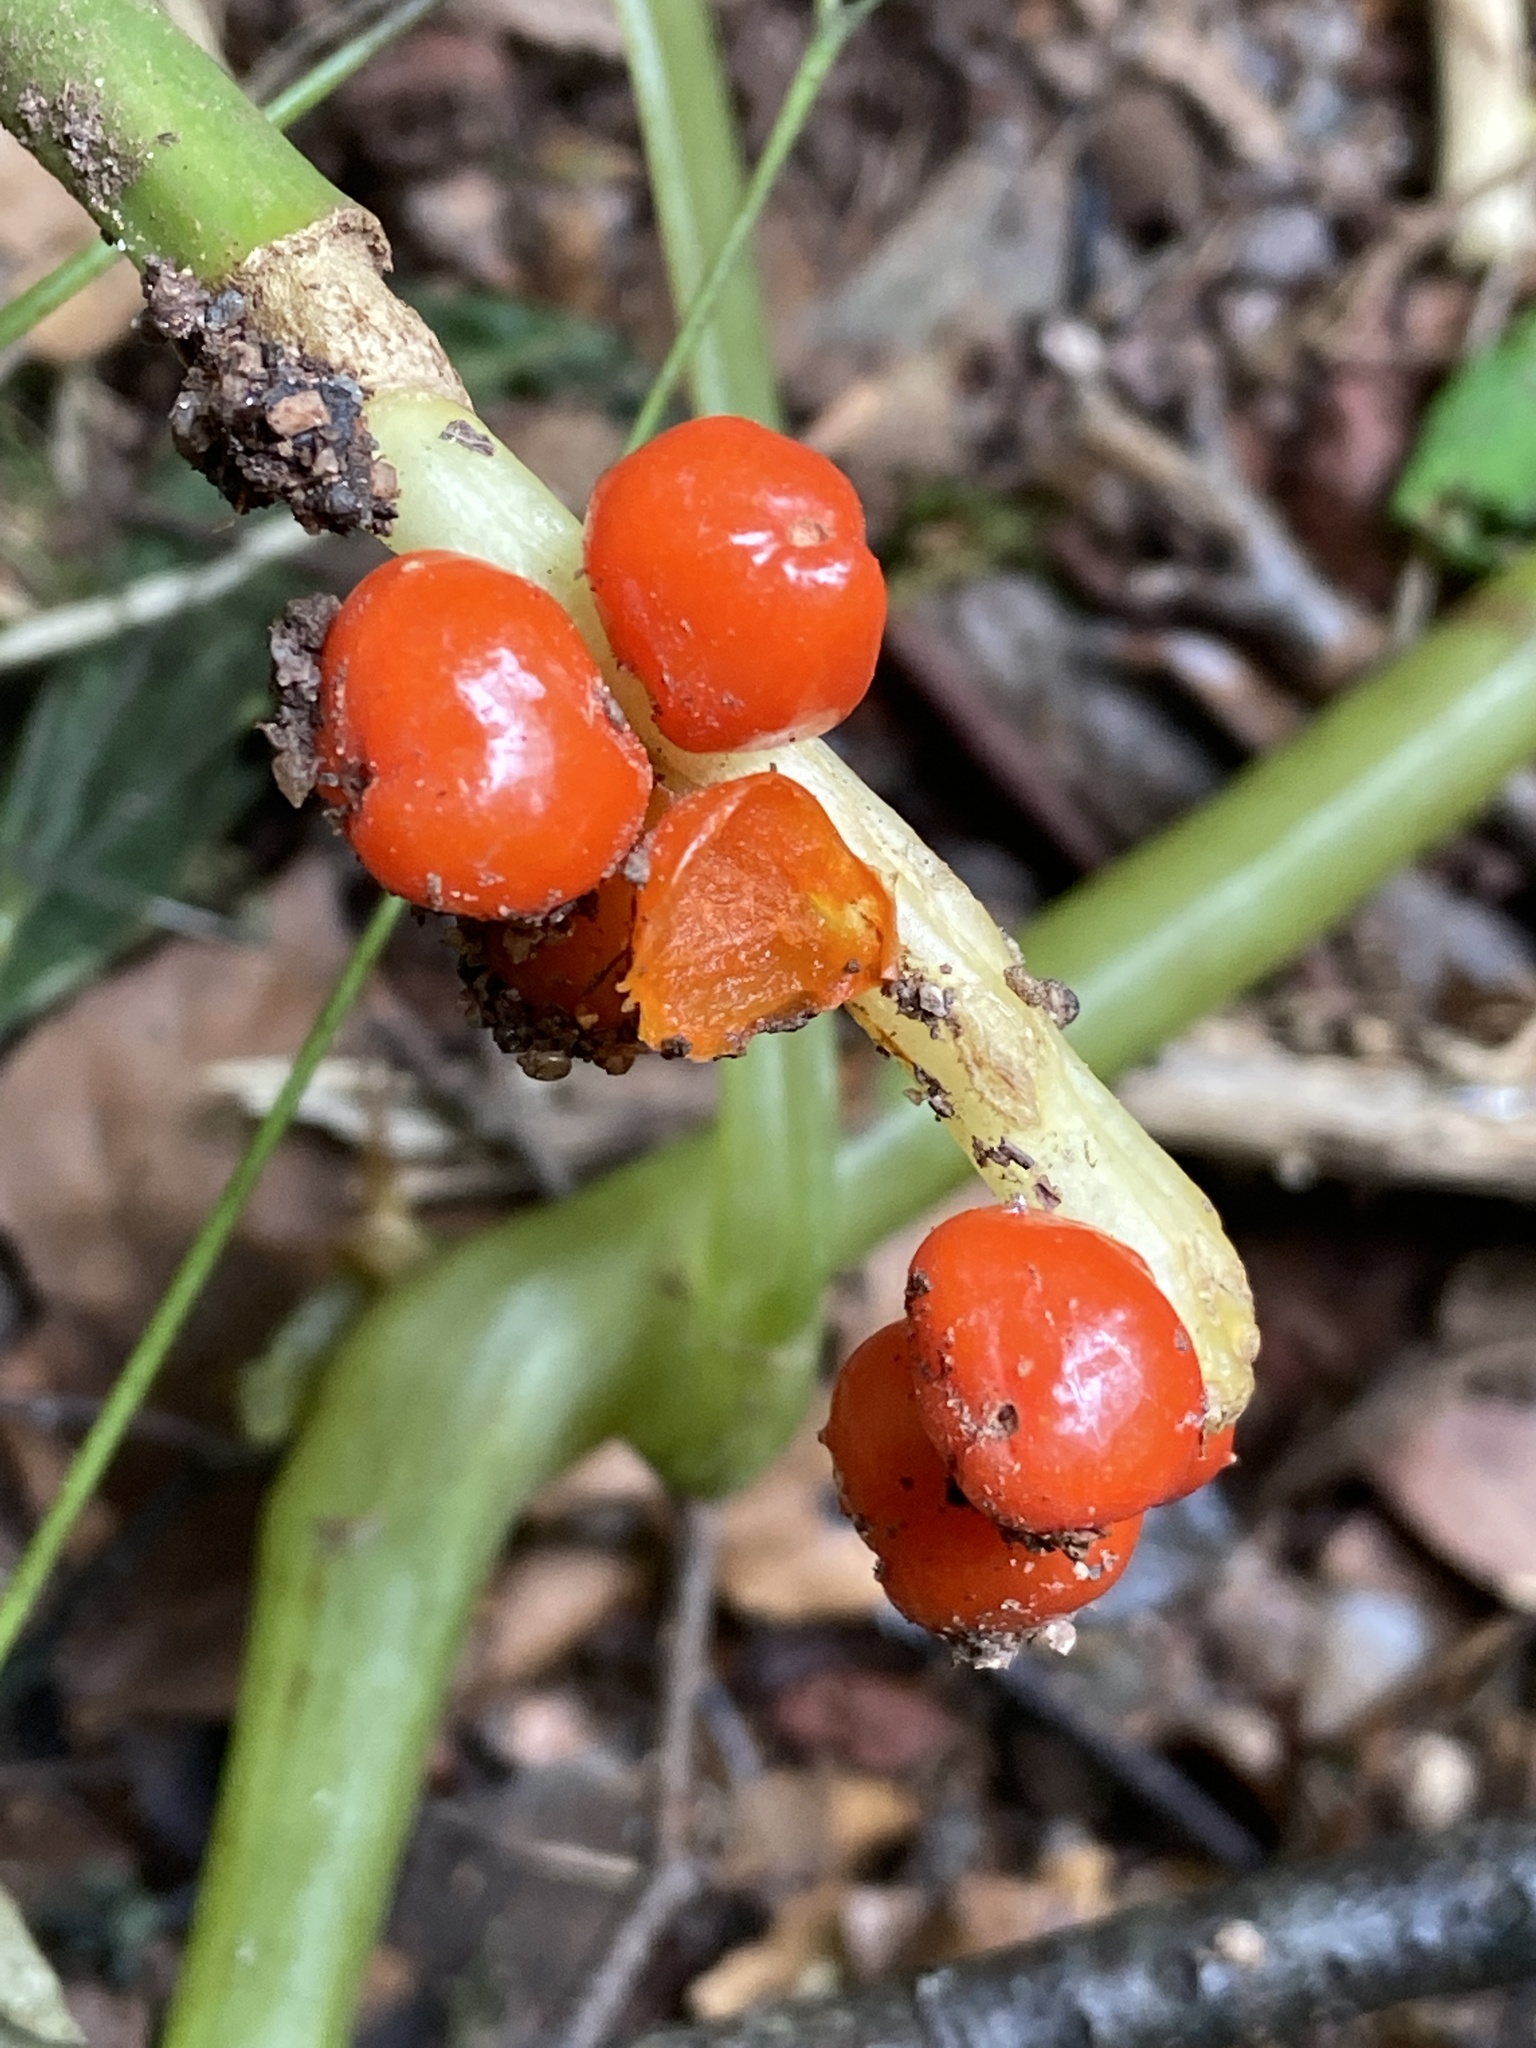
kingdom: Plantae
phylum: Tracheophyta
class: Liliopsida
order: Alismatales
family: Araceae
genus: Arum
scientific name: Arum maculatum
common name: Lords-and-ladies
